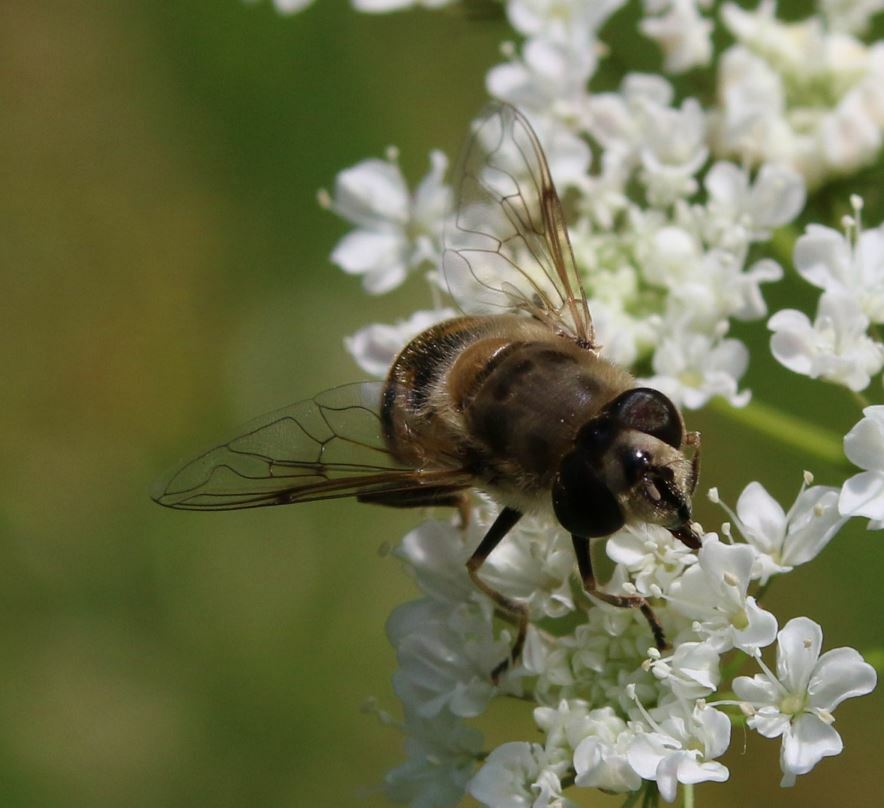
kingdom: Animalia
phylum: Arthropoda
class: Insecta
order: Diptera
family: Syrphidae
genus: Eristalis
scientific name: Eristalis tenax
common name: Drone fly
